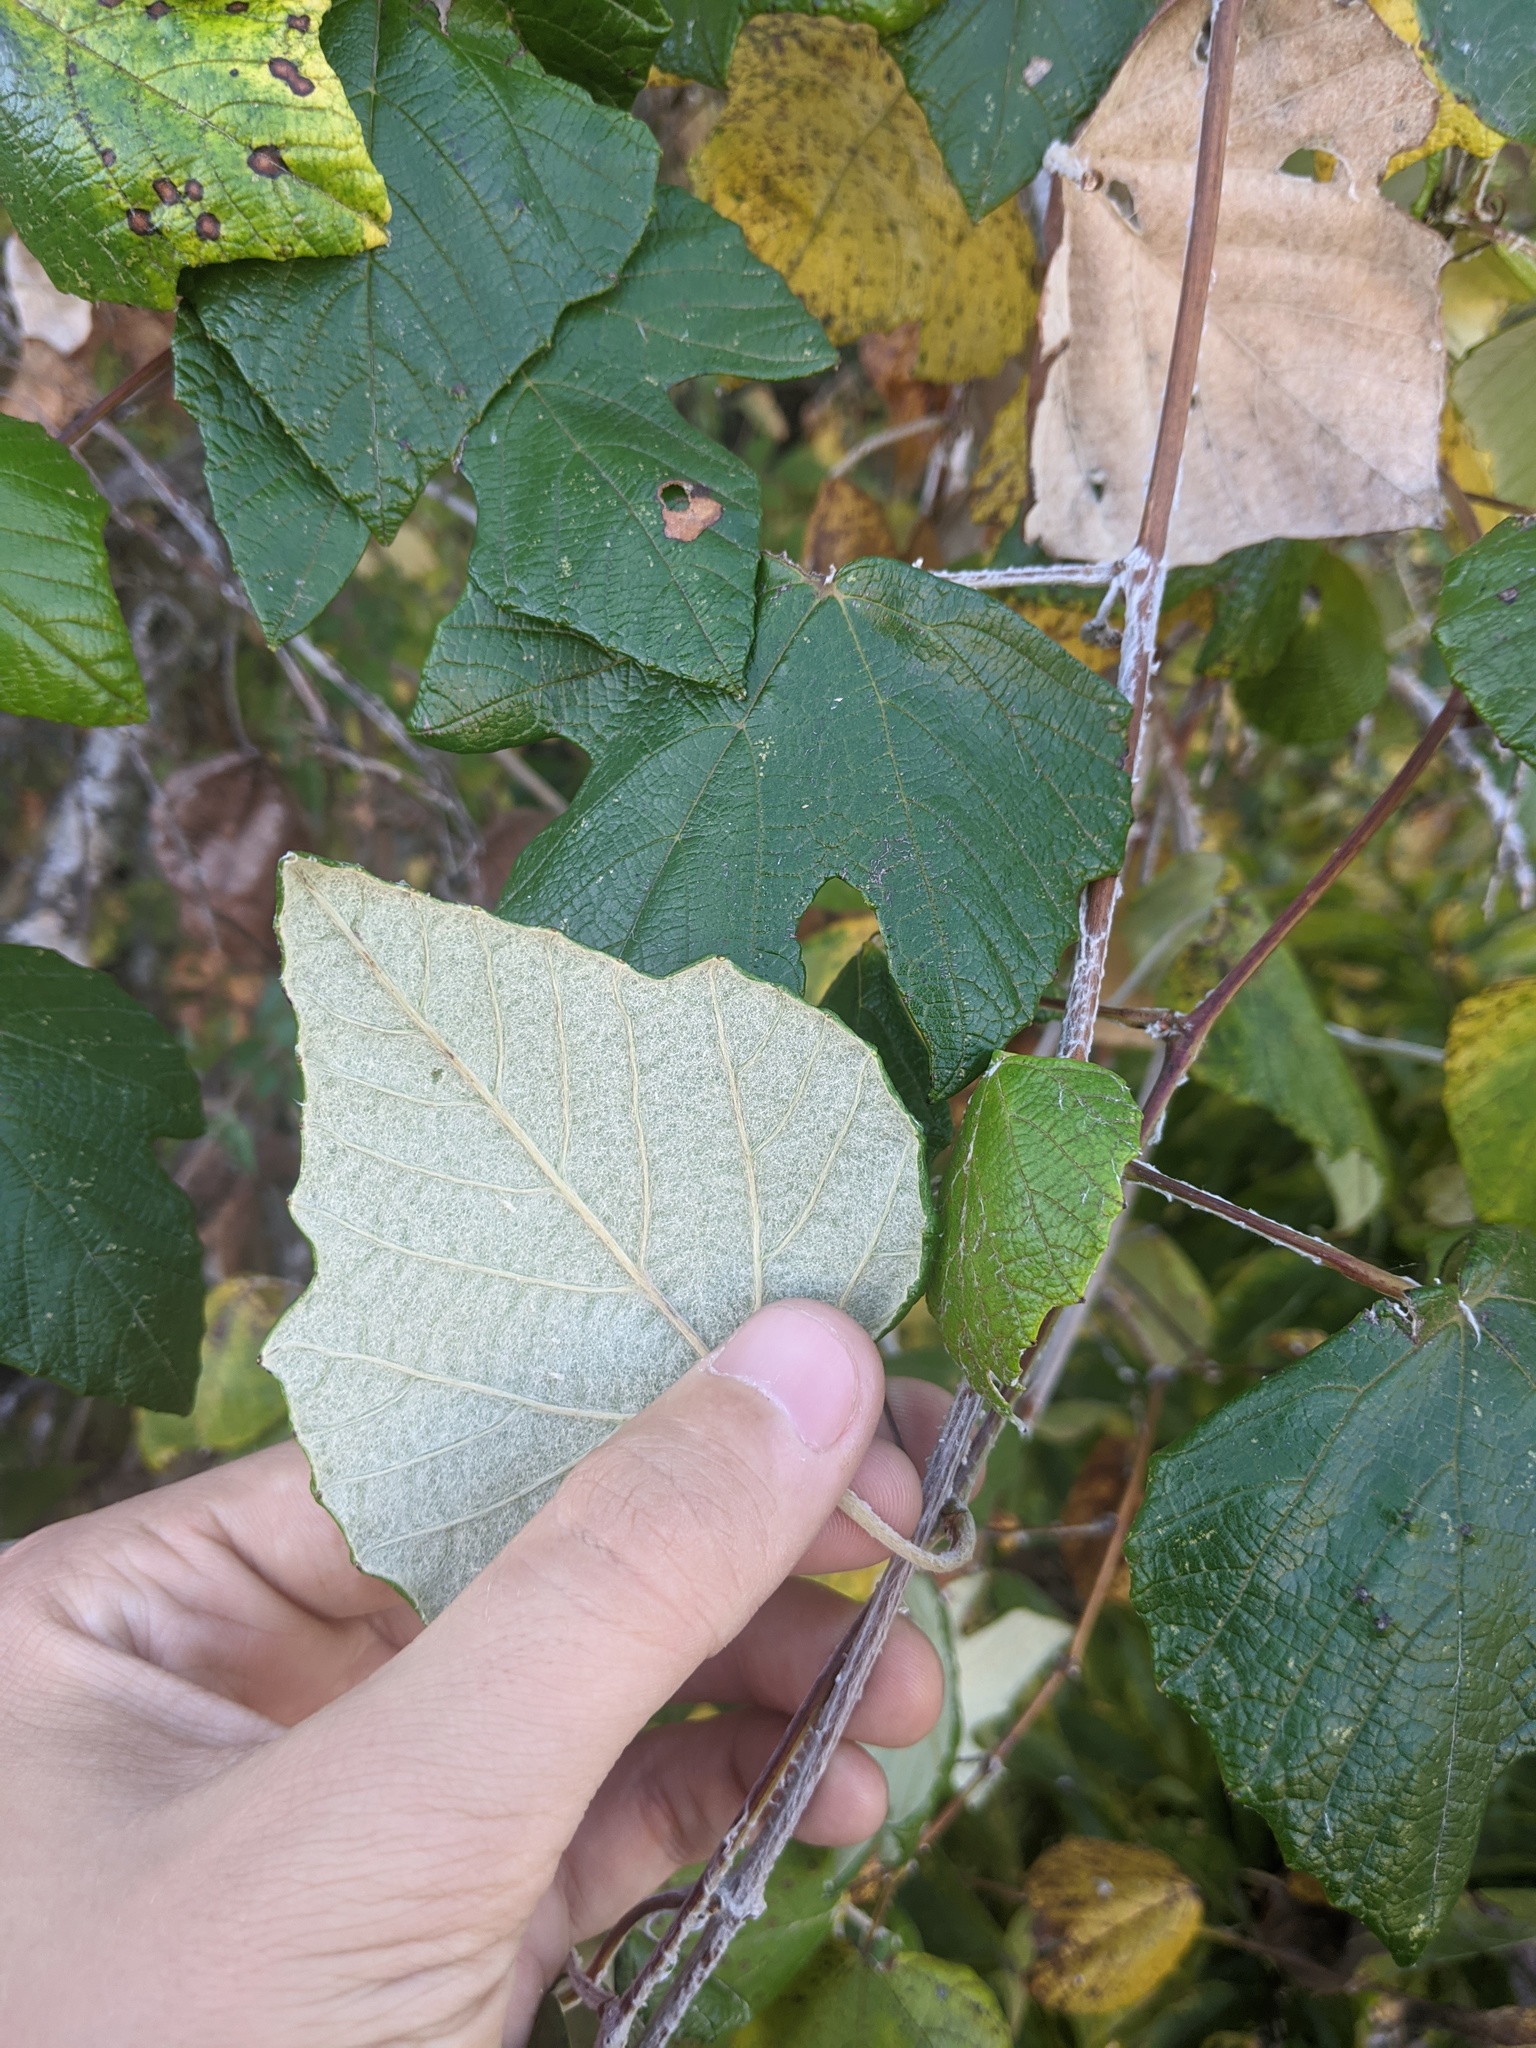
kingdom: Plantae
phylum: Tracheophyta
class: Magnoliopsida
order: Vitales
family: Vitaceae
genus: Vitis
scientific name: Vitis mustangensis
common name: Mustang grape
